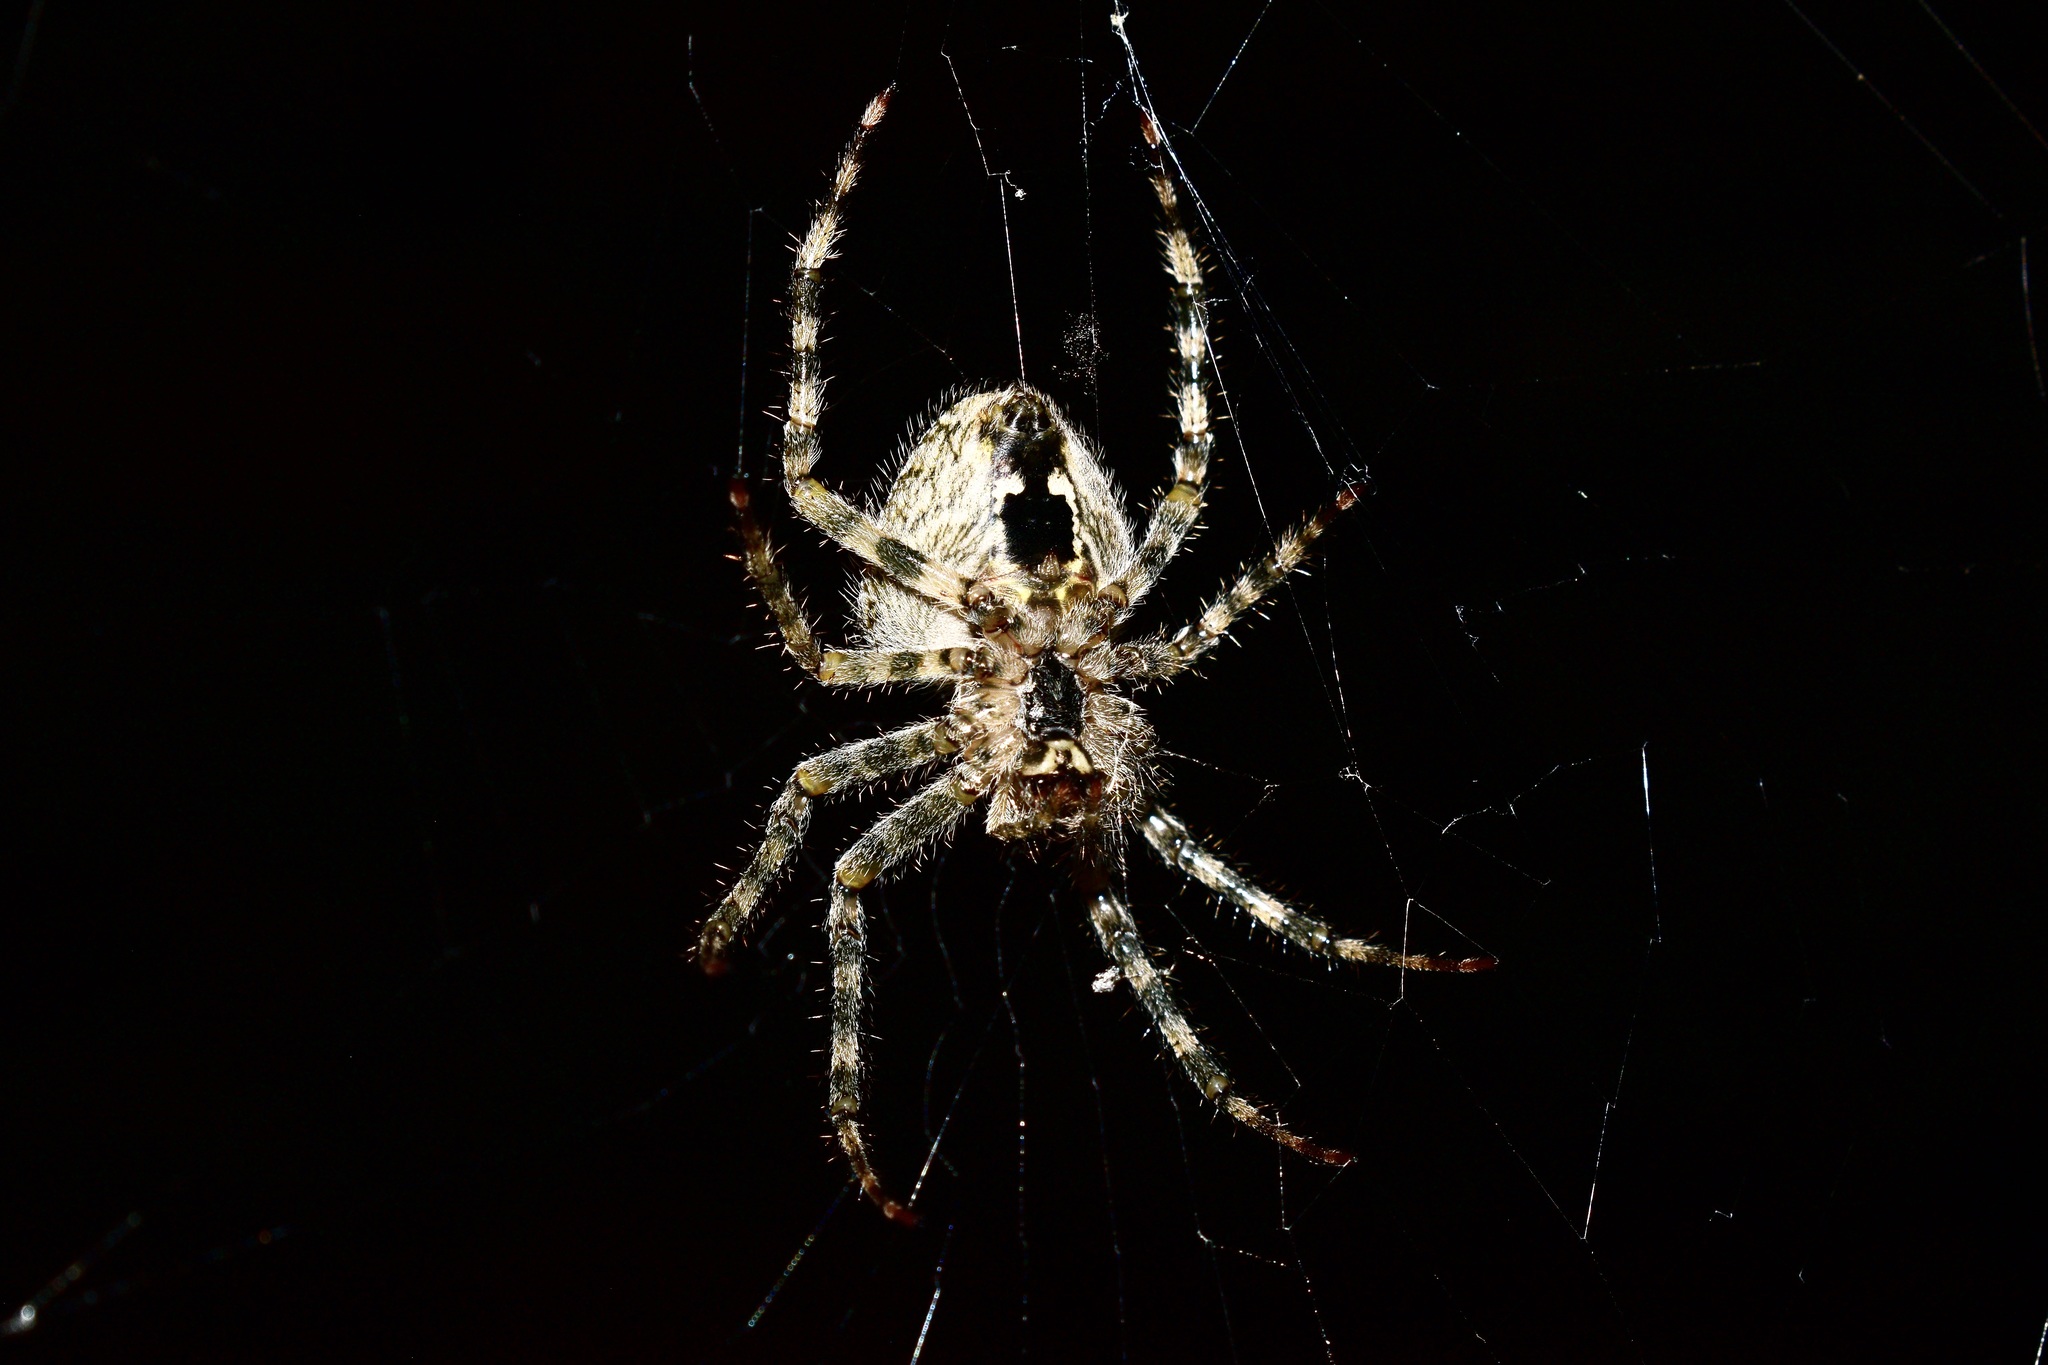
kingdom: Animalia
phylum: Arthropoda
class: Arachnida
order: Araneae
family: Araneidae
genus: Araneus
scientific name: Araneus cavaticus
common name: Barn orbweaver
